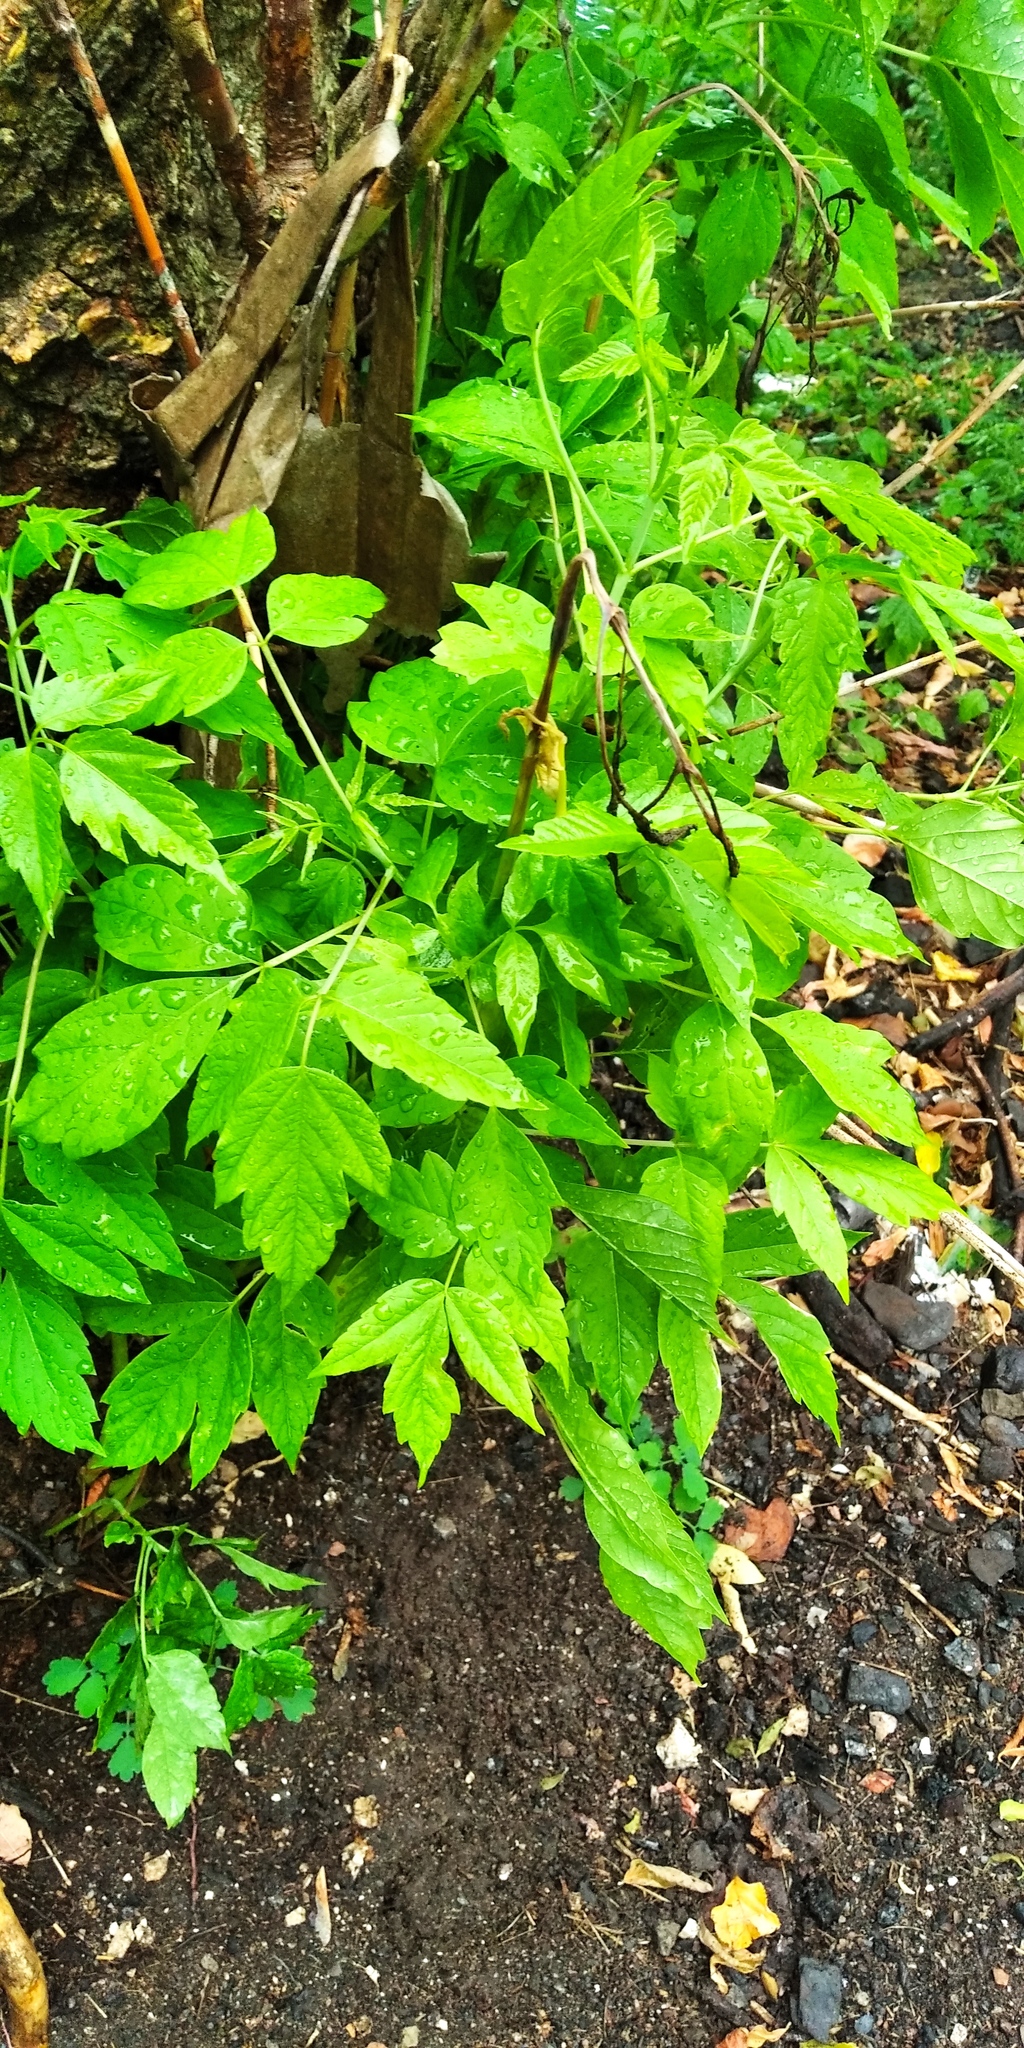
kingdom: Plantae
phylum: Tracheophyta
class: Magnoliopsida
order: Sapindales
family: Sapindaceae
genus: Acer
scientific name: Acer negundo
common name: Ashleaf maple
